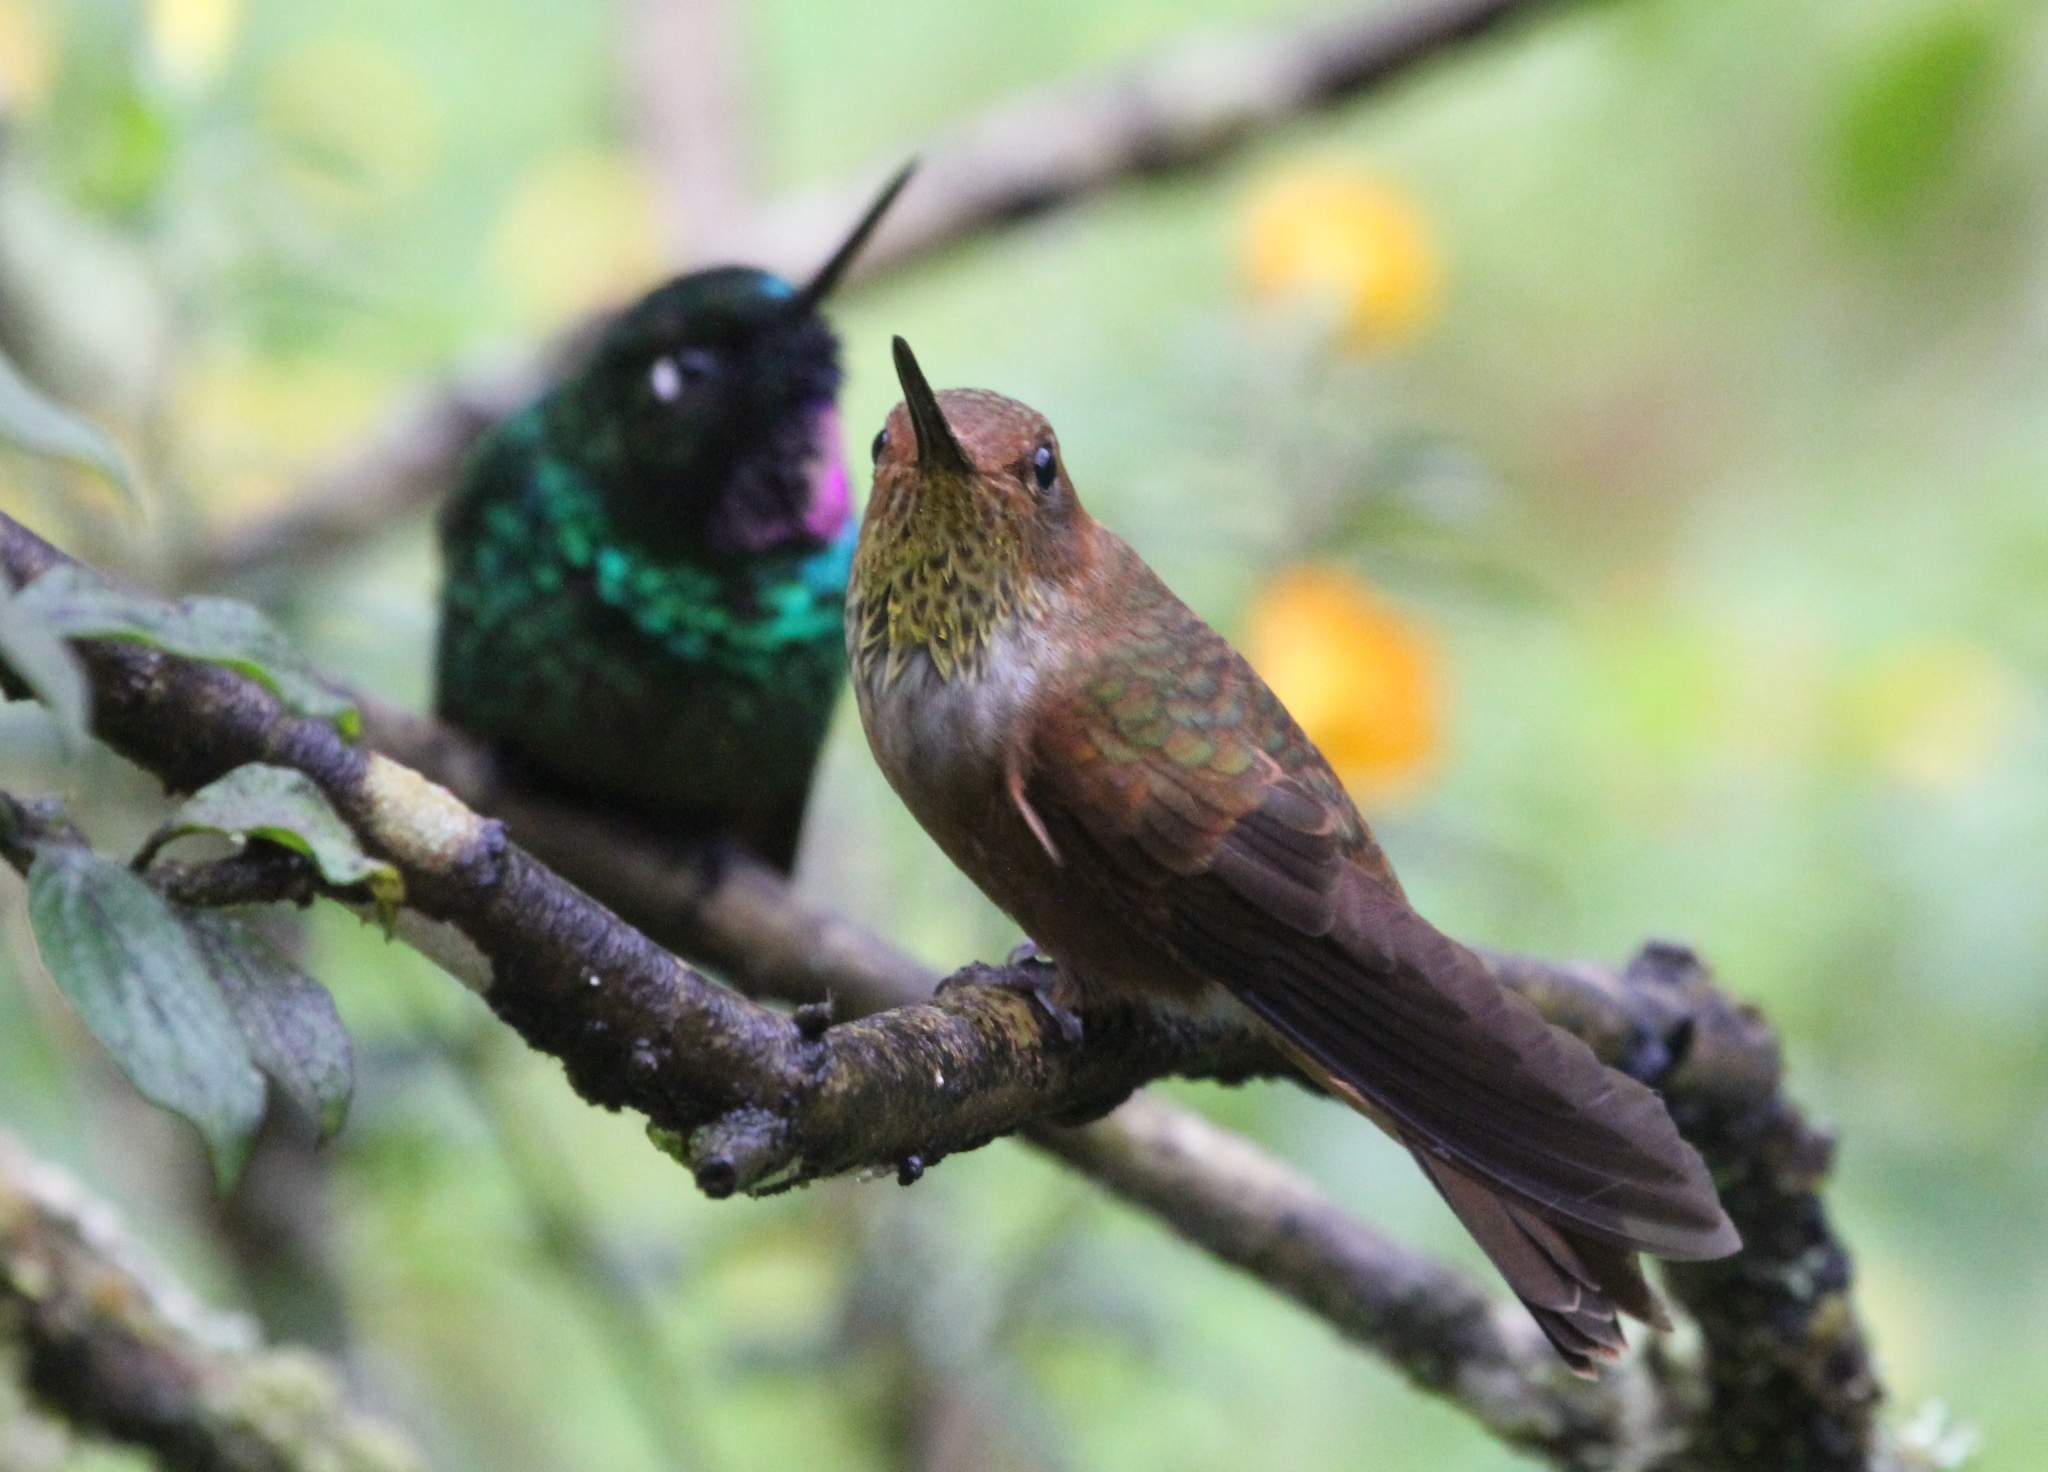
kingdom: Animalia
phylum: Chordata
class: Aves
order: Apodiformes
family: Trochilidae
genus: Coeligena
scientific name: Coeligena coeligena
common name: Bronzy inca
